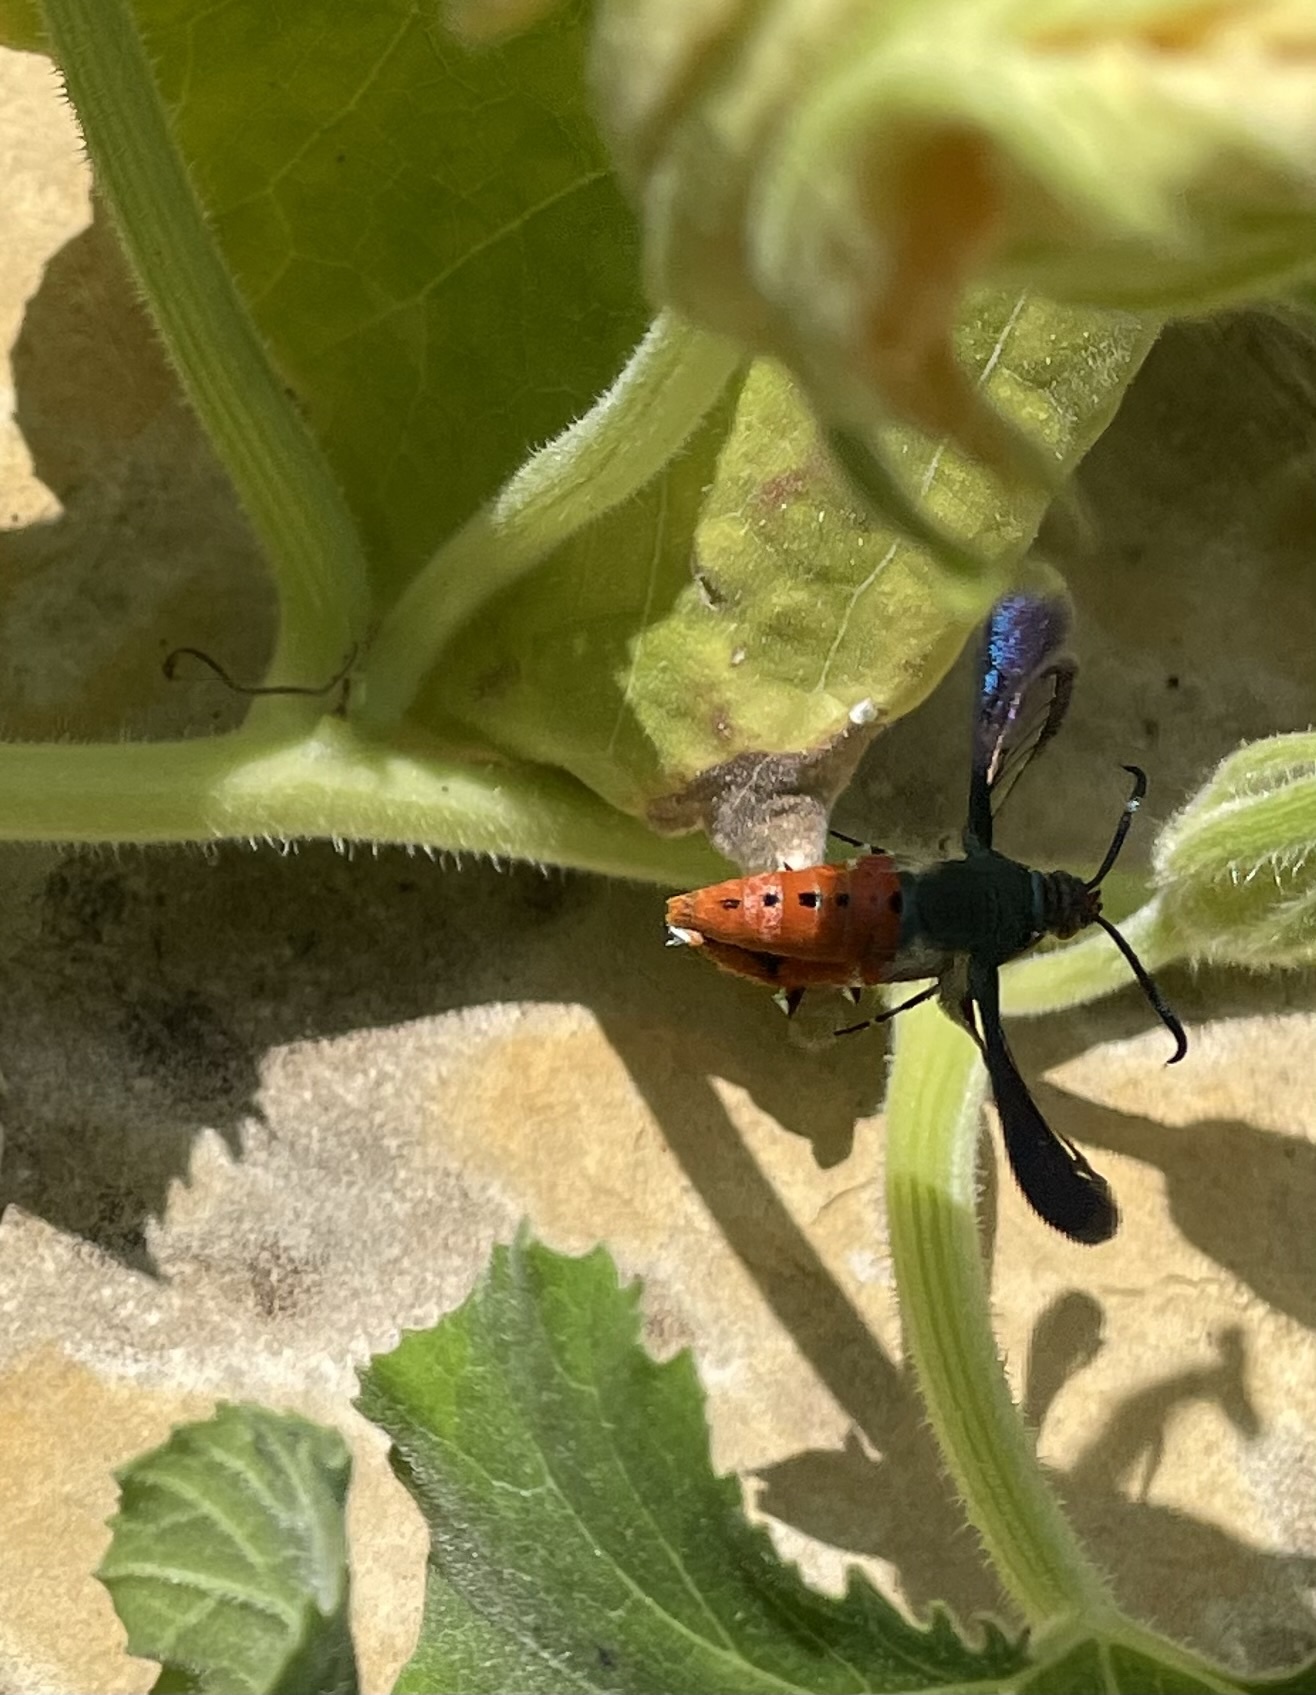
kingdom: Animalia
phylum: Arthropoda
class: Insecta
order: Lepidoptera
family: Sesiidae
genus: Eichlinia
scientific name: Eichlinia calabaza
